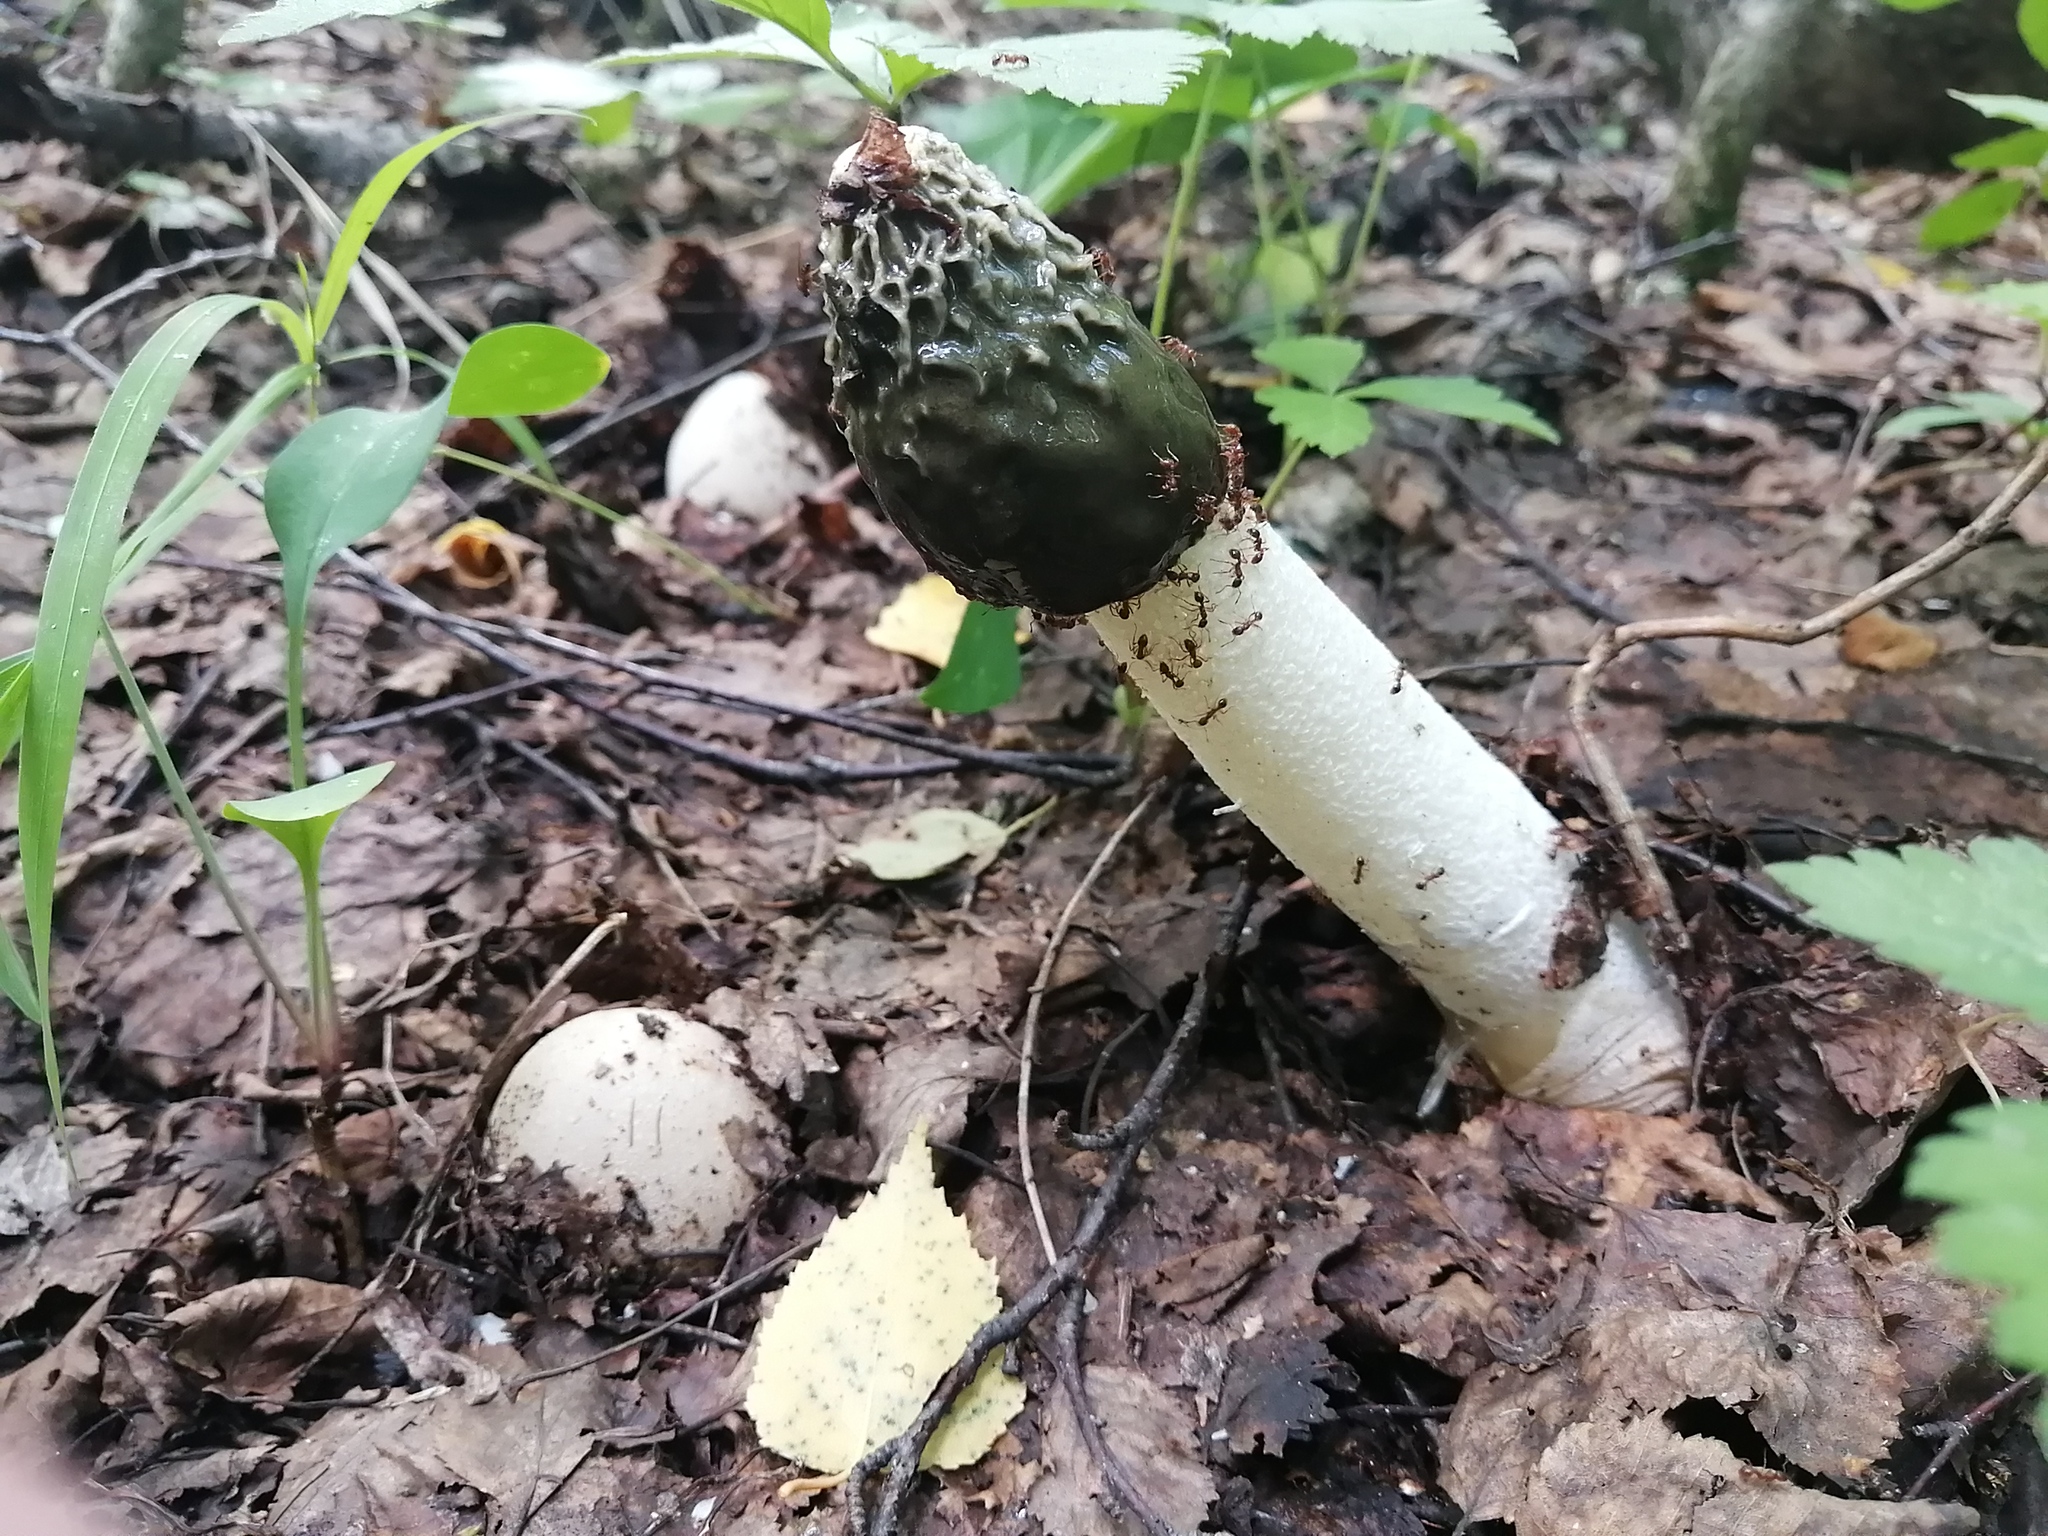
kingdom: Fungi
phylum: Basidiomycota
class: Agaricomycetes
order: Phallales
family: Phallaceae
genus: Phallus
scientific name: Phallus impudicus
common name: Common stinkhorn
